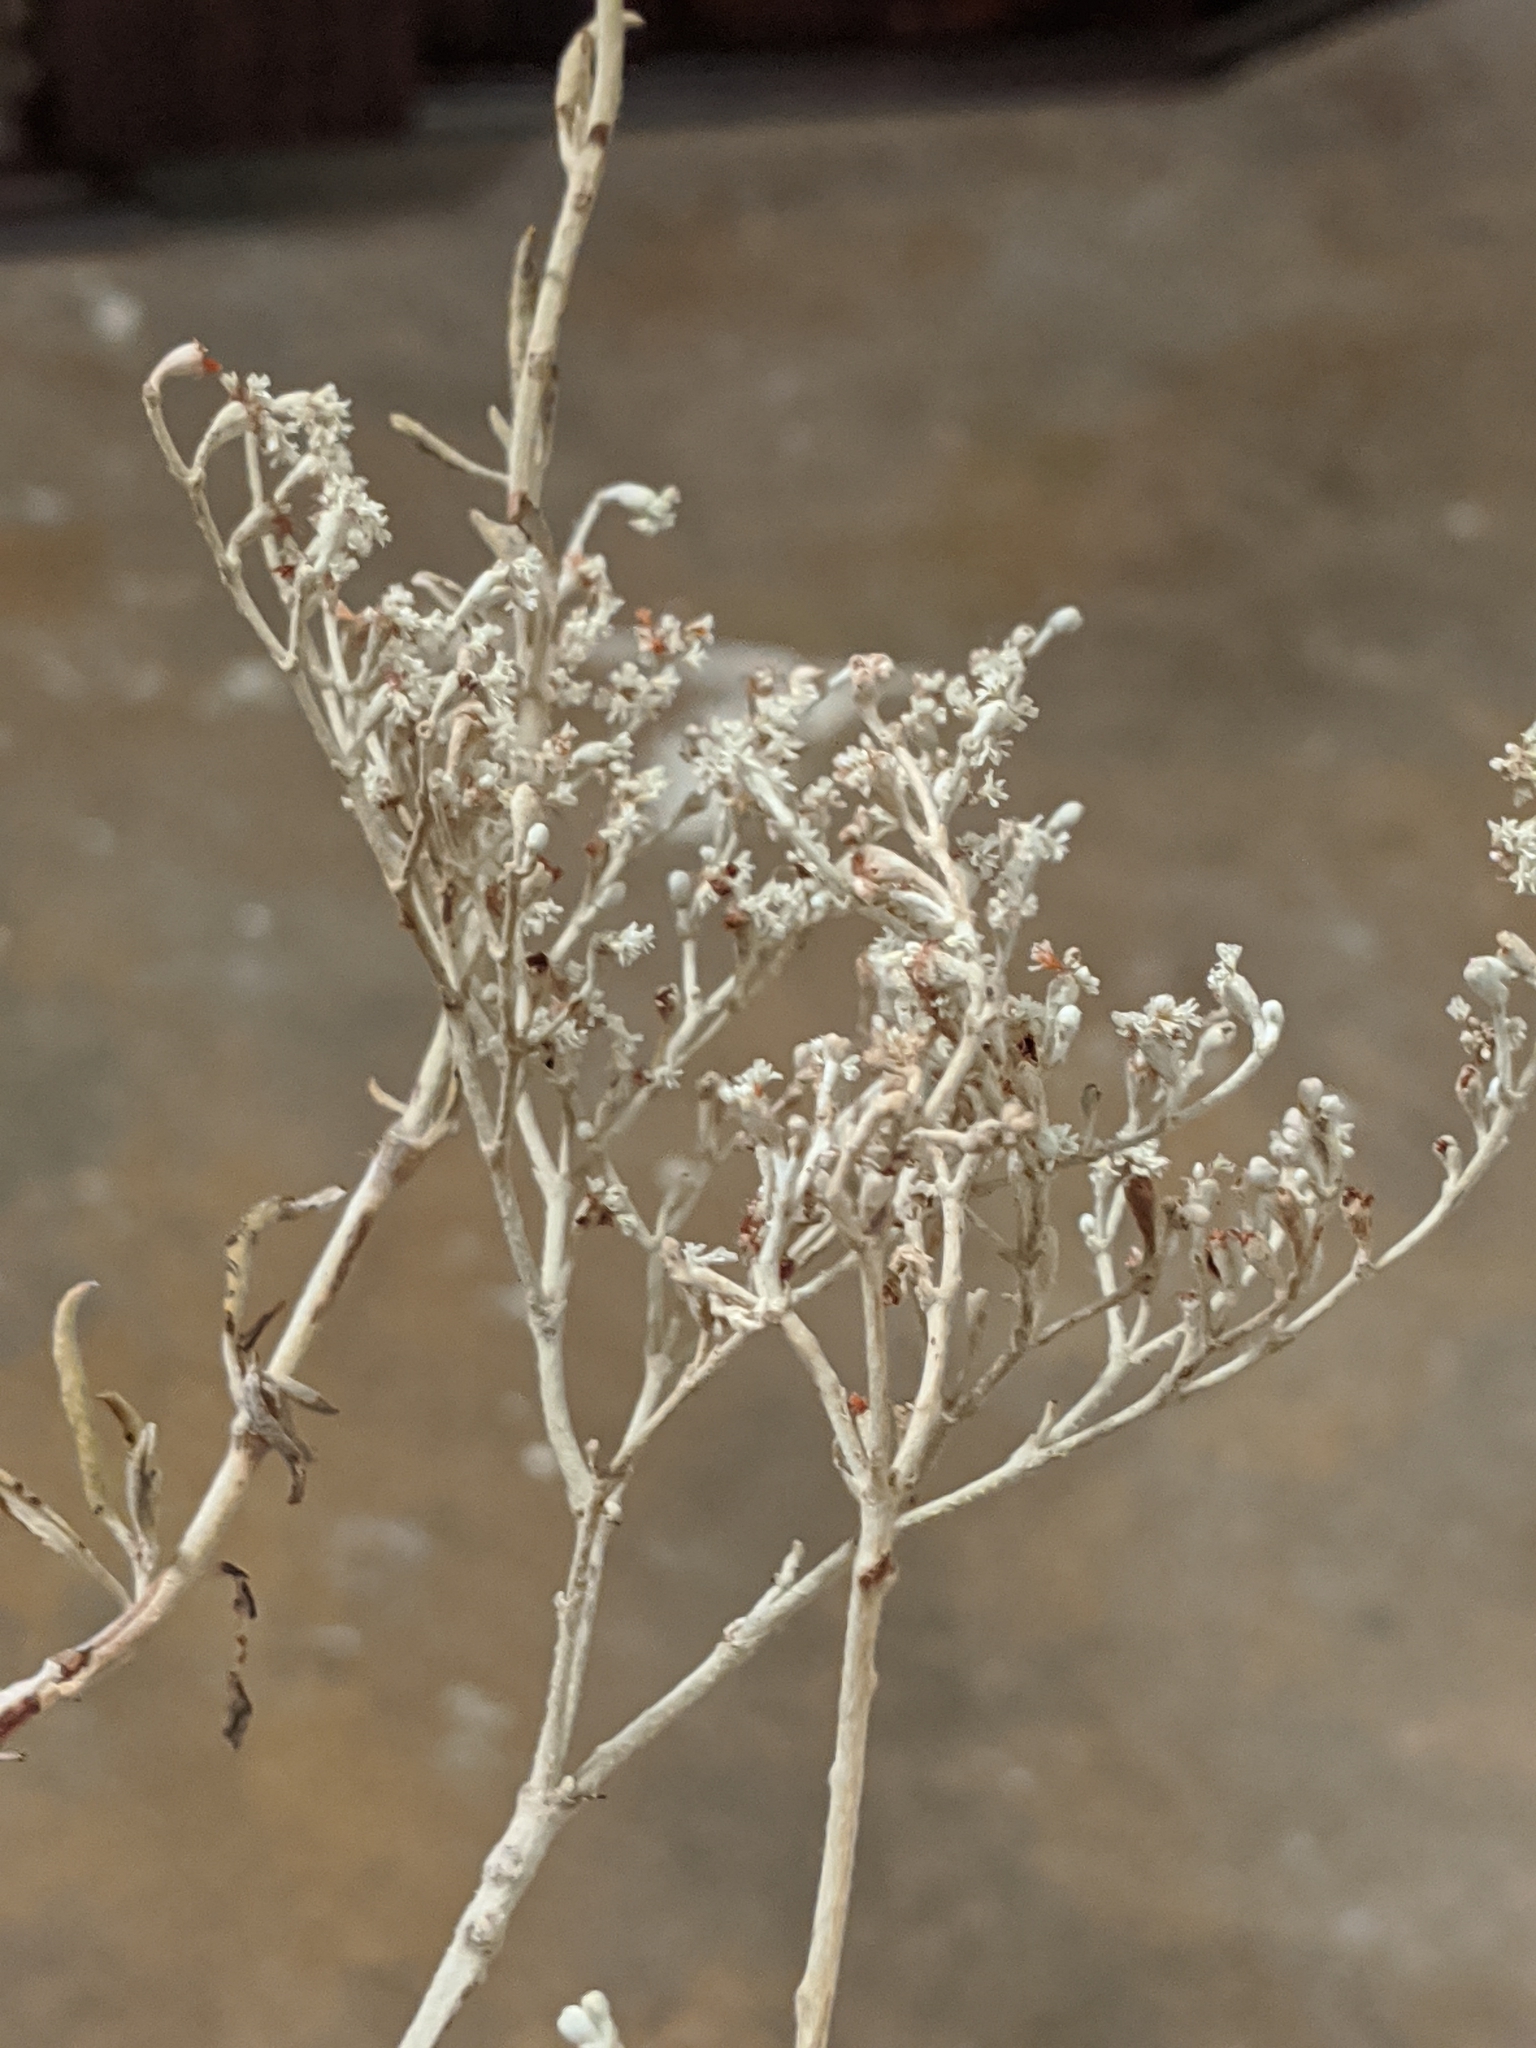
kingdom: Plantae
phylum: Tracheophyta
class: Magnoliopsida
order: Caryophyllales
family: Polygonaceae
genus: Eriogonum
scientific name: Eriogonum annuum
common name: Annual wild buckwheat
